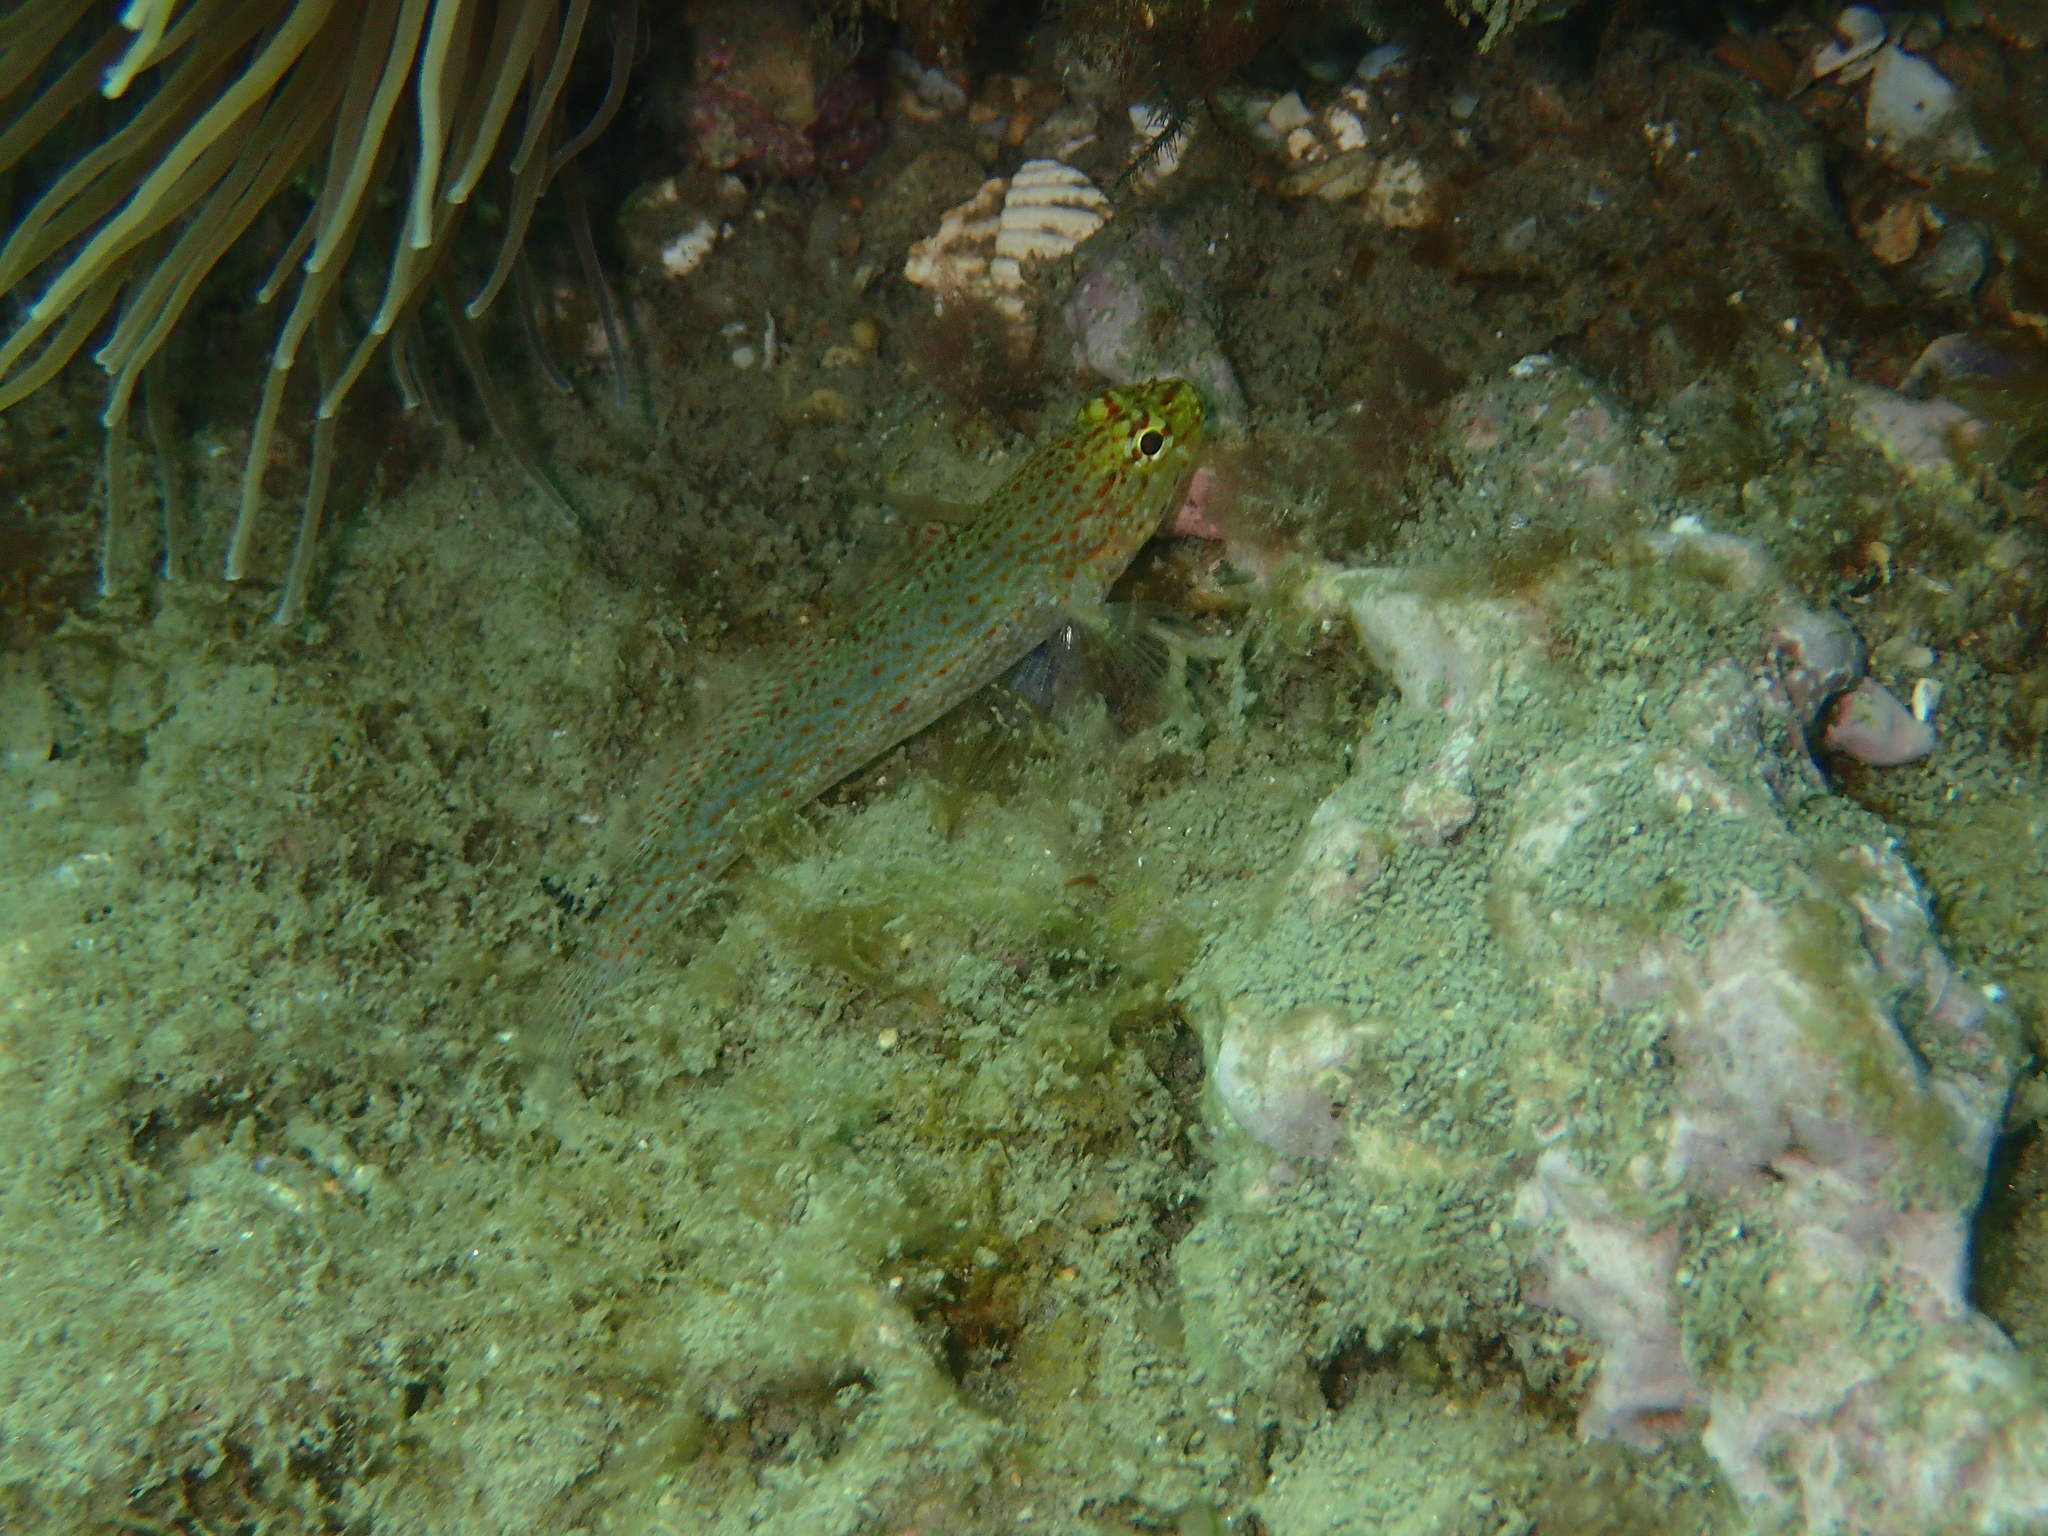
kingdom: Animalia
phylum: Chordata
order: Perciformes
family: Gobiidae
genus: Gobius
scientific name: Gobius xanthocephalus
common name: Golden goby
